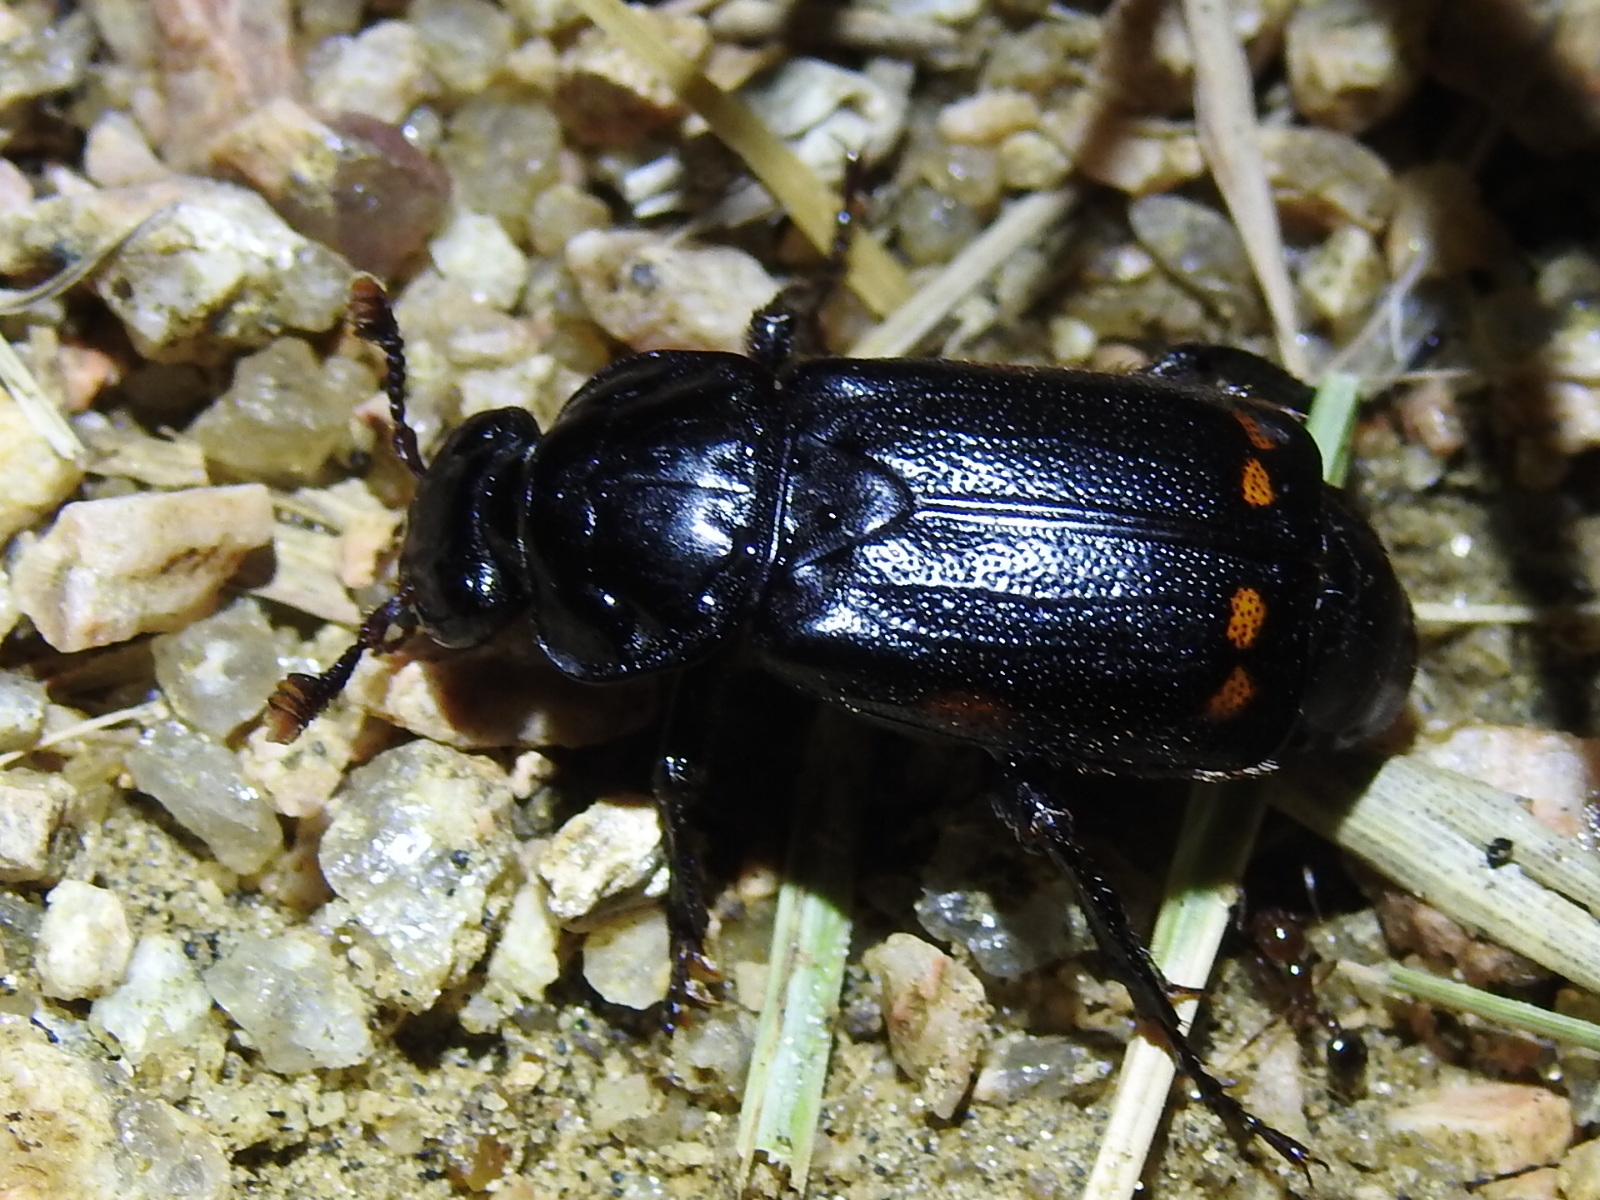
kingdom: Animalia
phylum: Arthropoda
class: Insecta
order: Coleoptera
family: Staphylinidae
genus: Nicrophorus
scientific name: Nicrophorus pustulatus
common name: Pustulated carrion beetle
